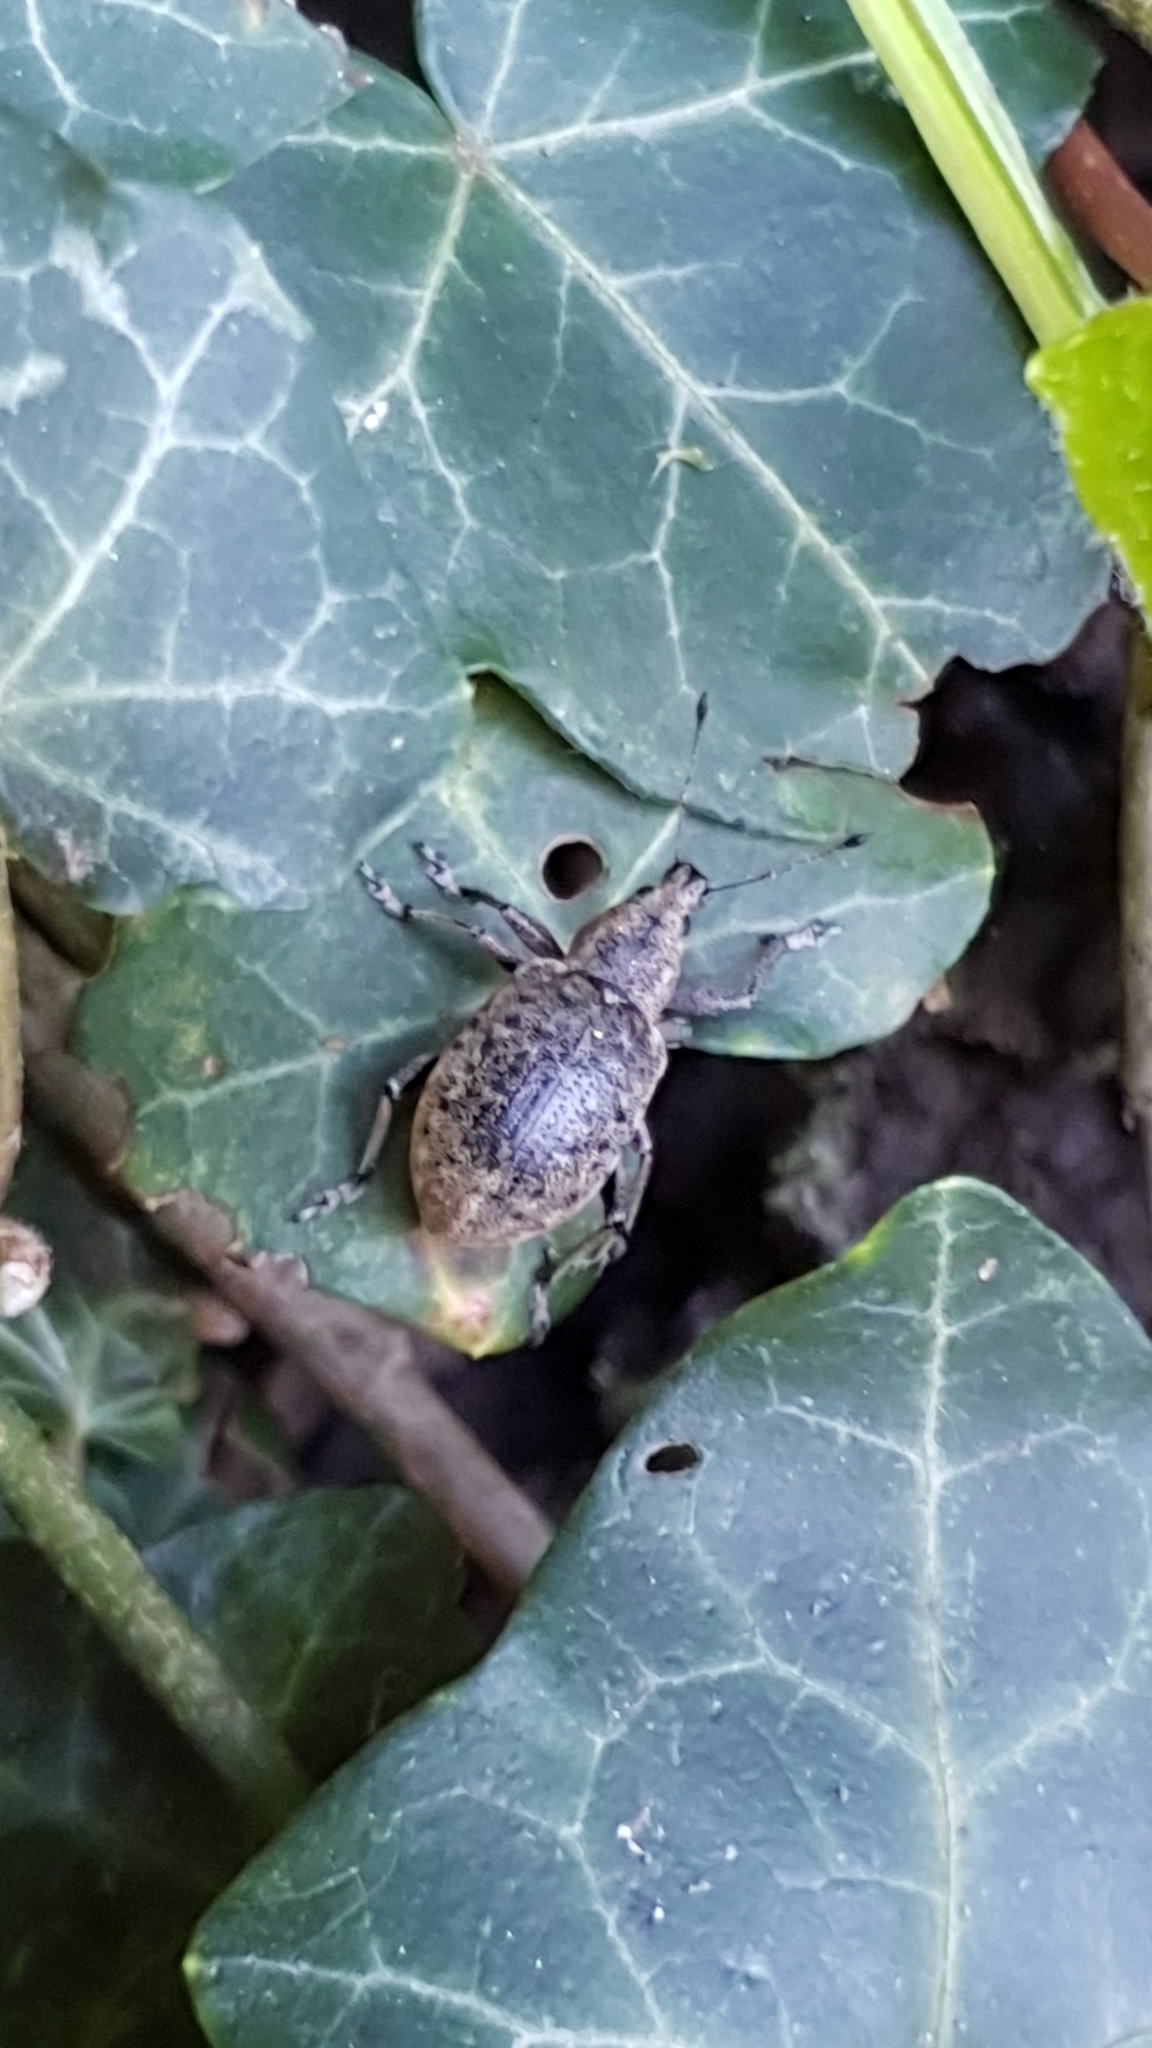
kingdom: Animalia
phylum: Arthropoda
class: Insecta
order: Coleoptera
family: Curculionidae
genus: Liophloeus
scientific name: Liophloeus tessulatus
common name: Weevil
